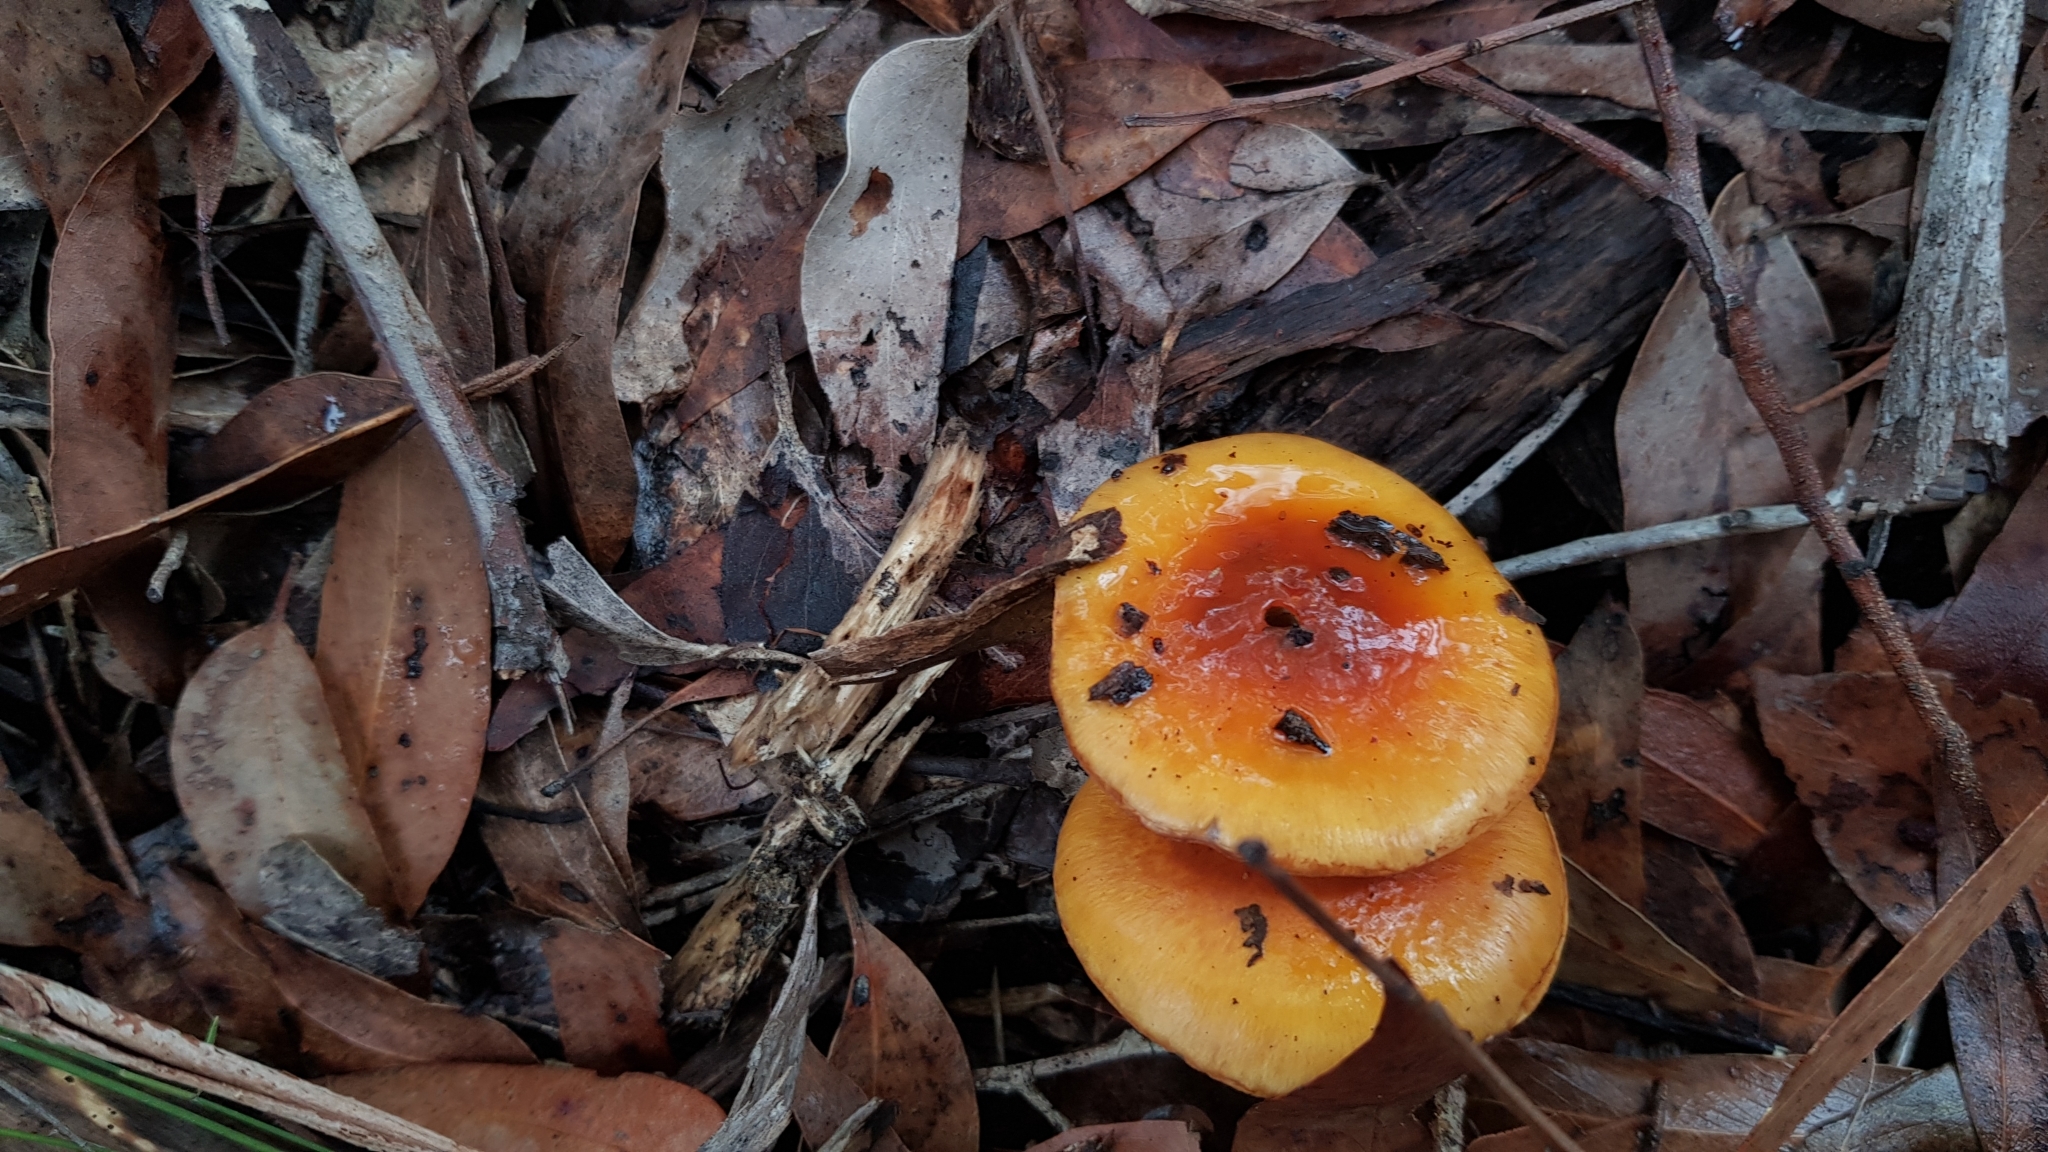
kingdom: Fungi
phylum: Basidiomycota
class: Agaricomycetes
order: Agaricales
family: Cortinariaceae
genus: Cortinarius
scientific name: Cortinarius sinapicolor
